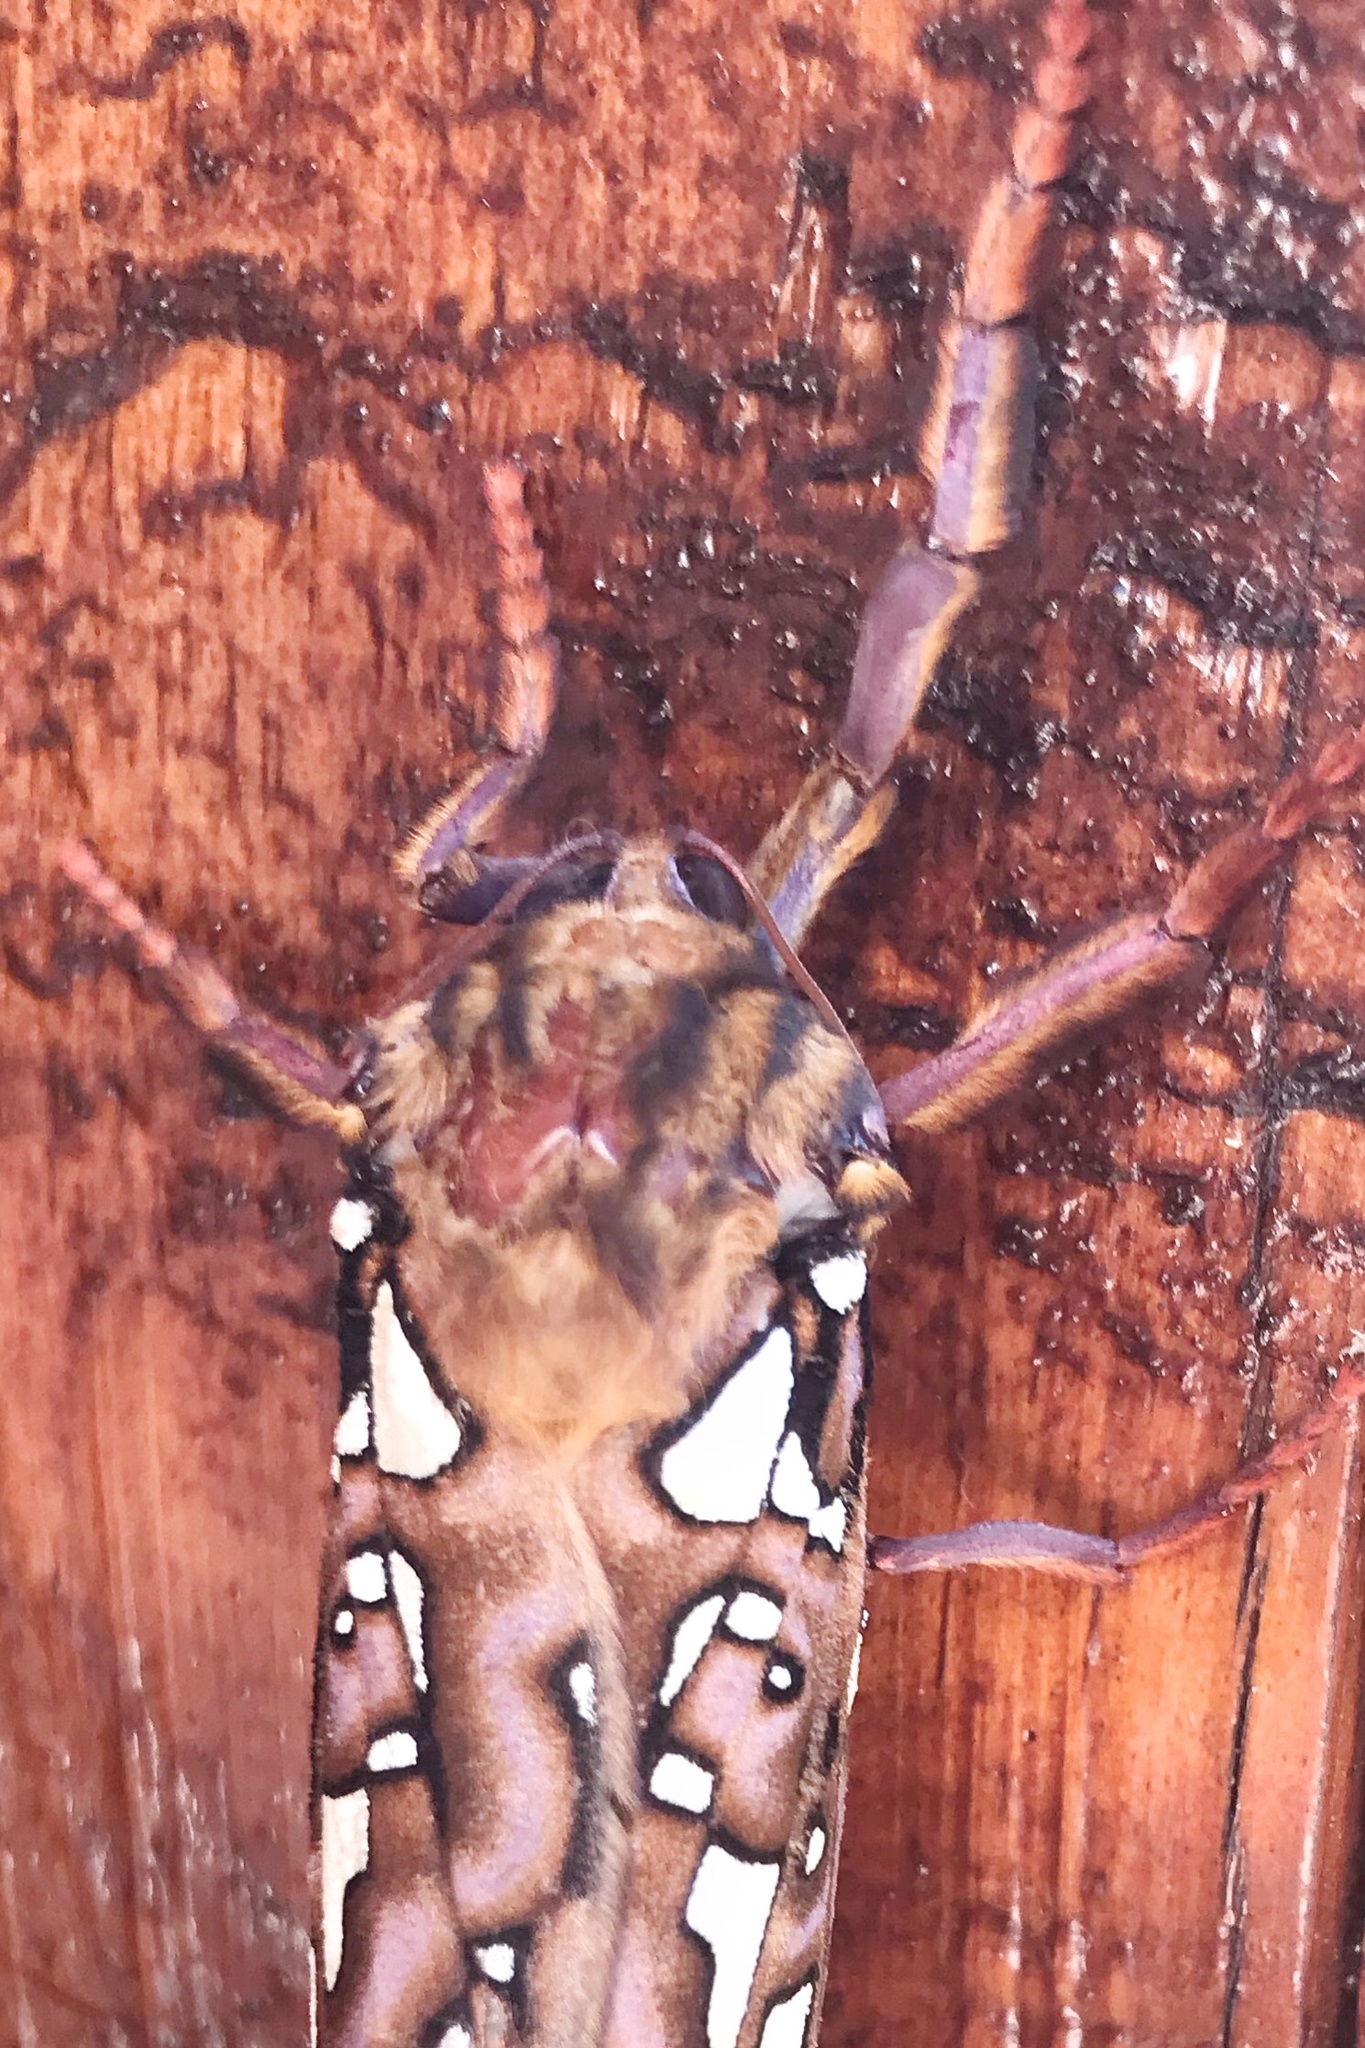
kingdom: Animalia
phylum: Arthropoda
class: Insecta
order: Lepidoptera
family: Hepialidae
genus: Leto
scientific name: Leto venus
